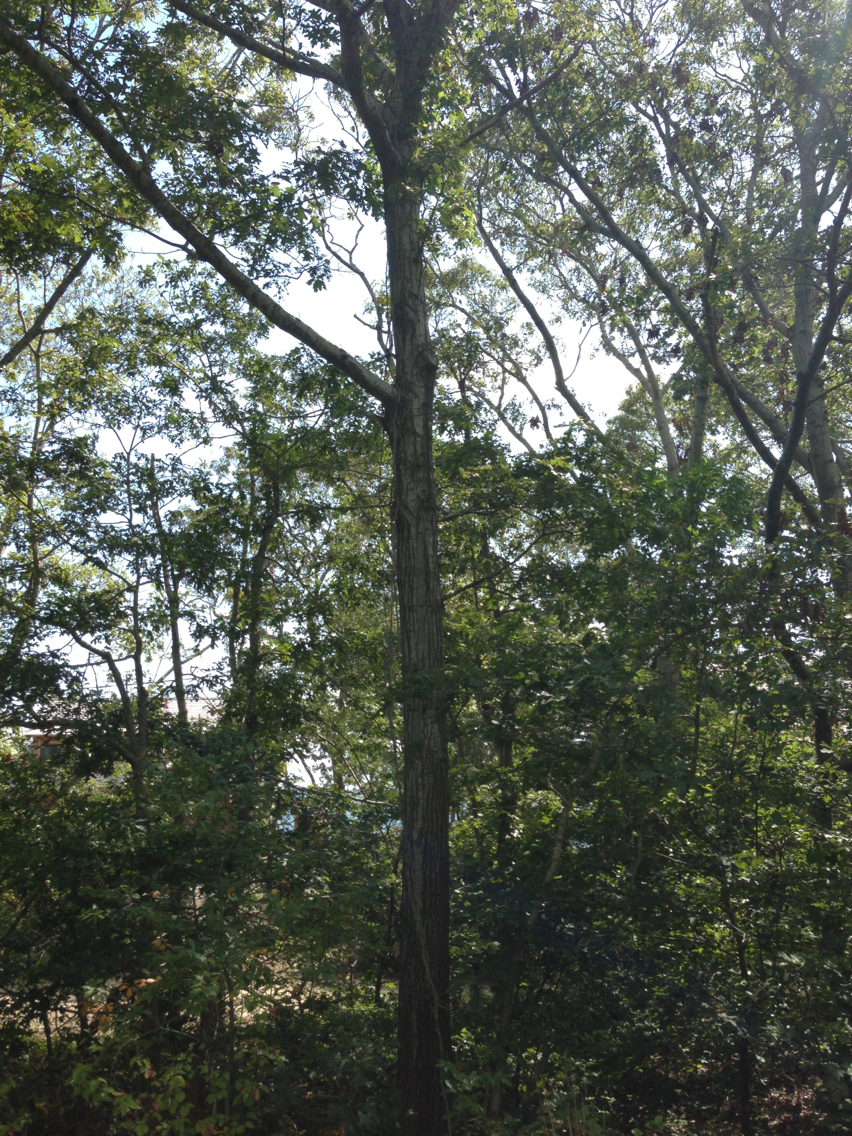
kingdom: Plantae
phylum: Tracheophyta
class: Magnoliopsida
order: Fagales
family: Fagaceae
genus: Quercus
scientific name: Quercus rubra
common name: Red oak
